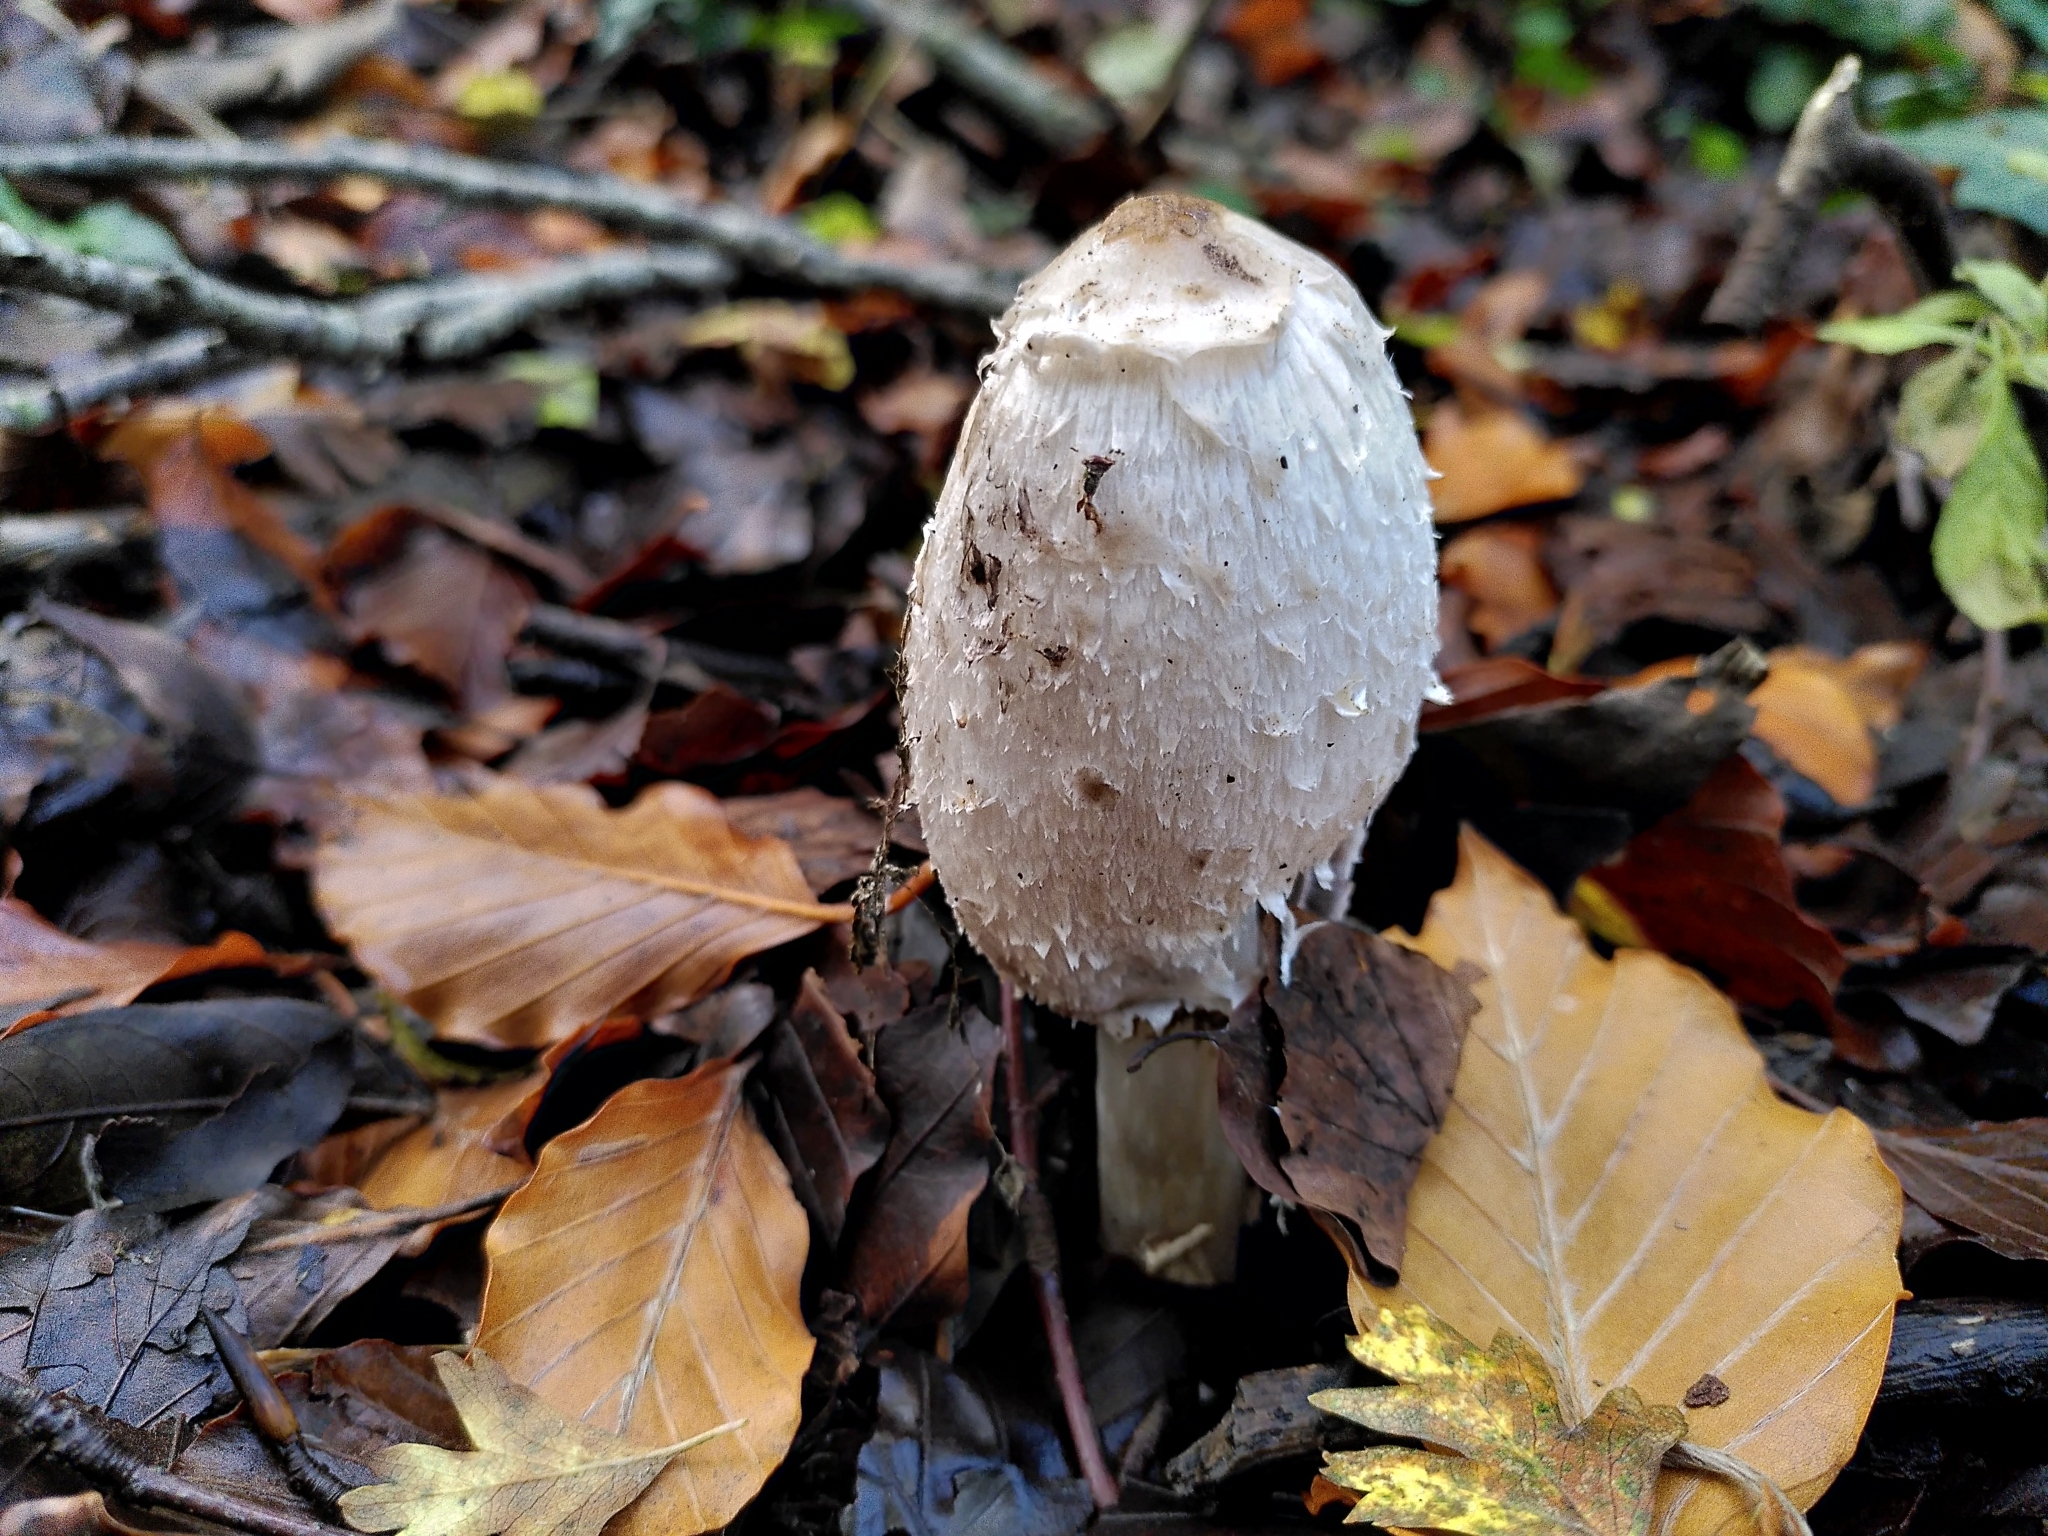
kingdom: Fungi
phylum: Basidiomycota
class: Agaricomycetes
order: Agaricales
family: Agaricaceae
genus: Coprinus
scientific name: Coprinus comatus
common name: Lawyer's wig
